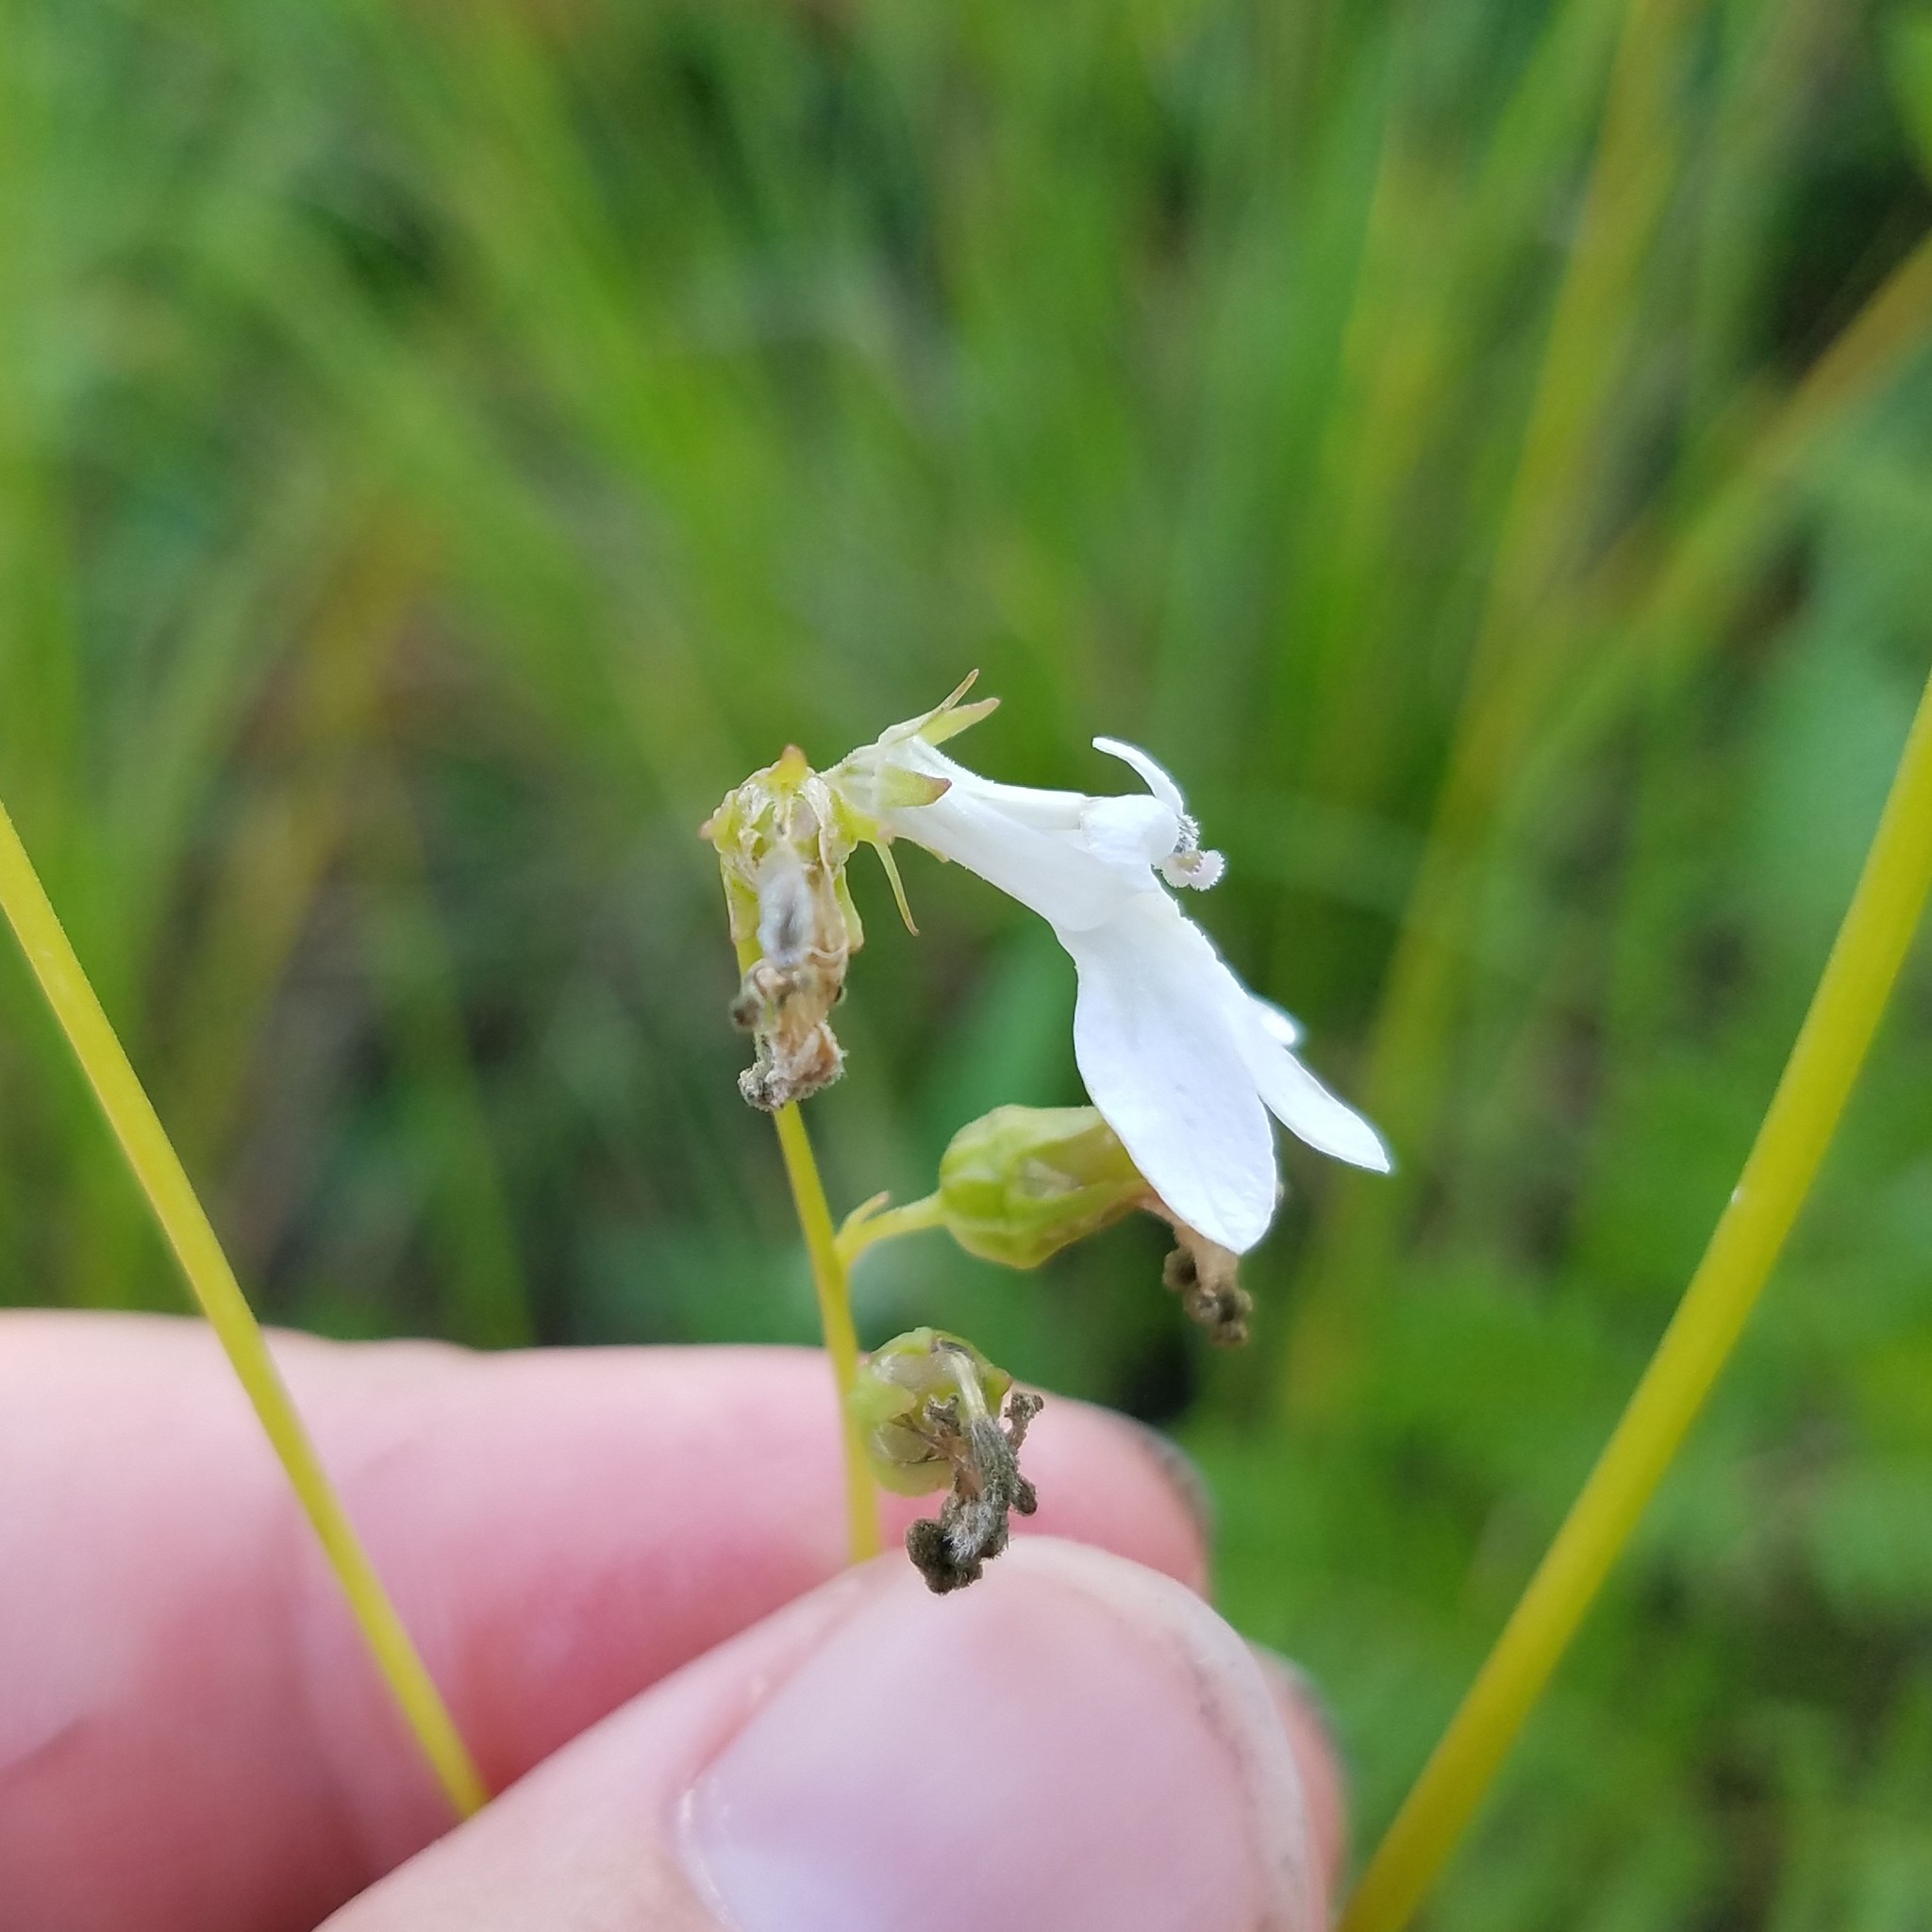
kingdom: Plantae
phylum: Tracheophyta
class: Magnoliopsida
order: Asterales
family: Campanulaceae
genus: Lobelia
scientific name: Lobelia paludosa
